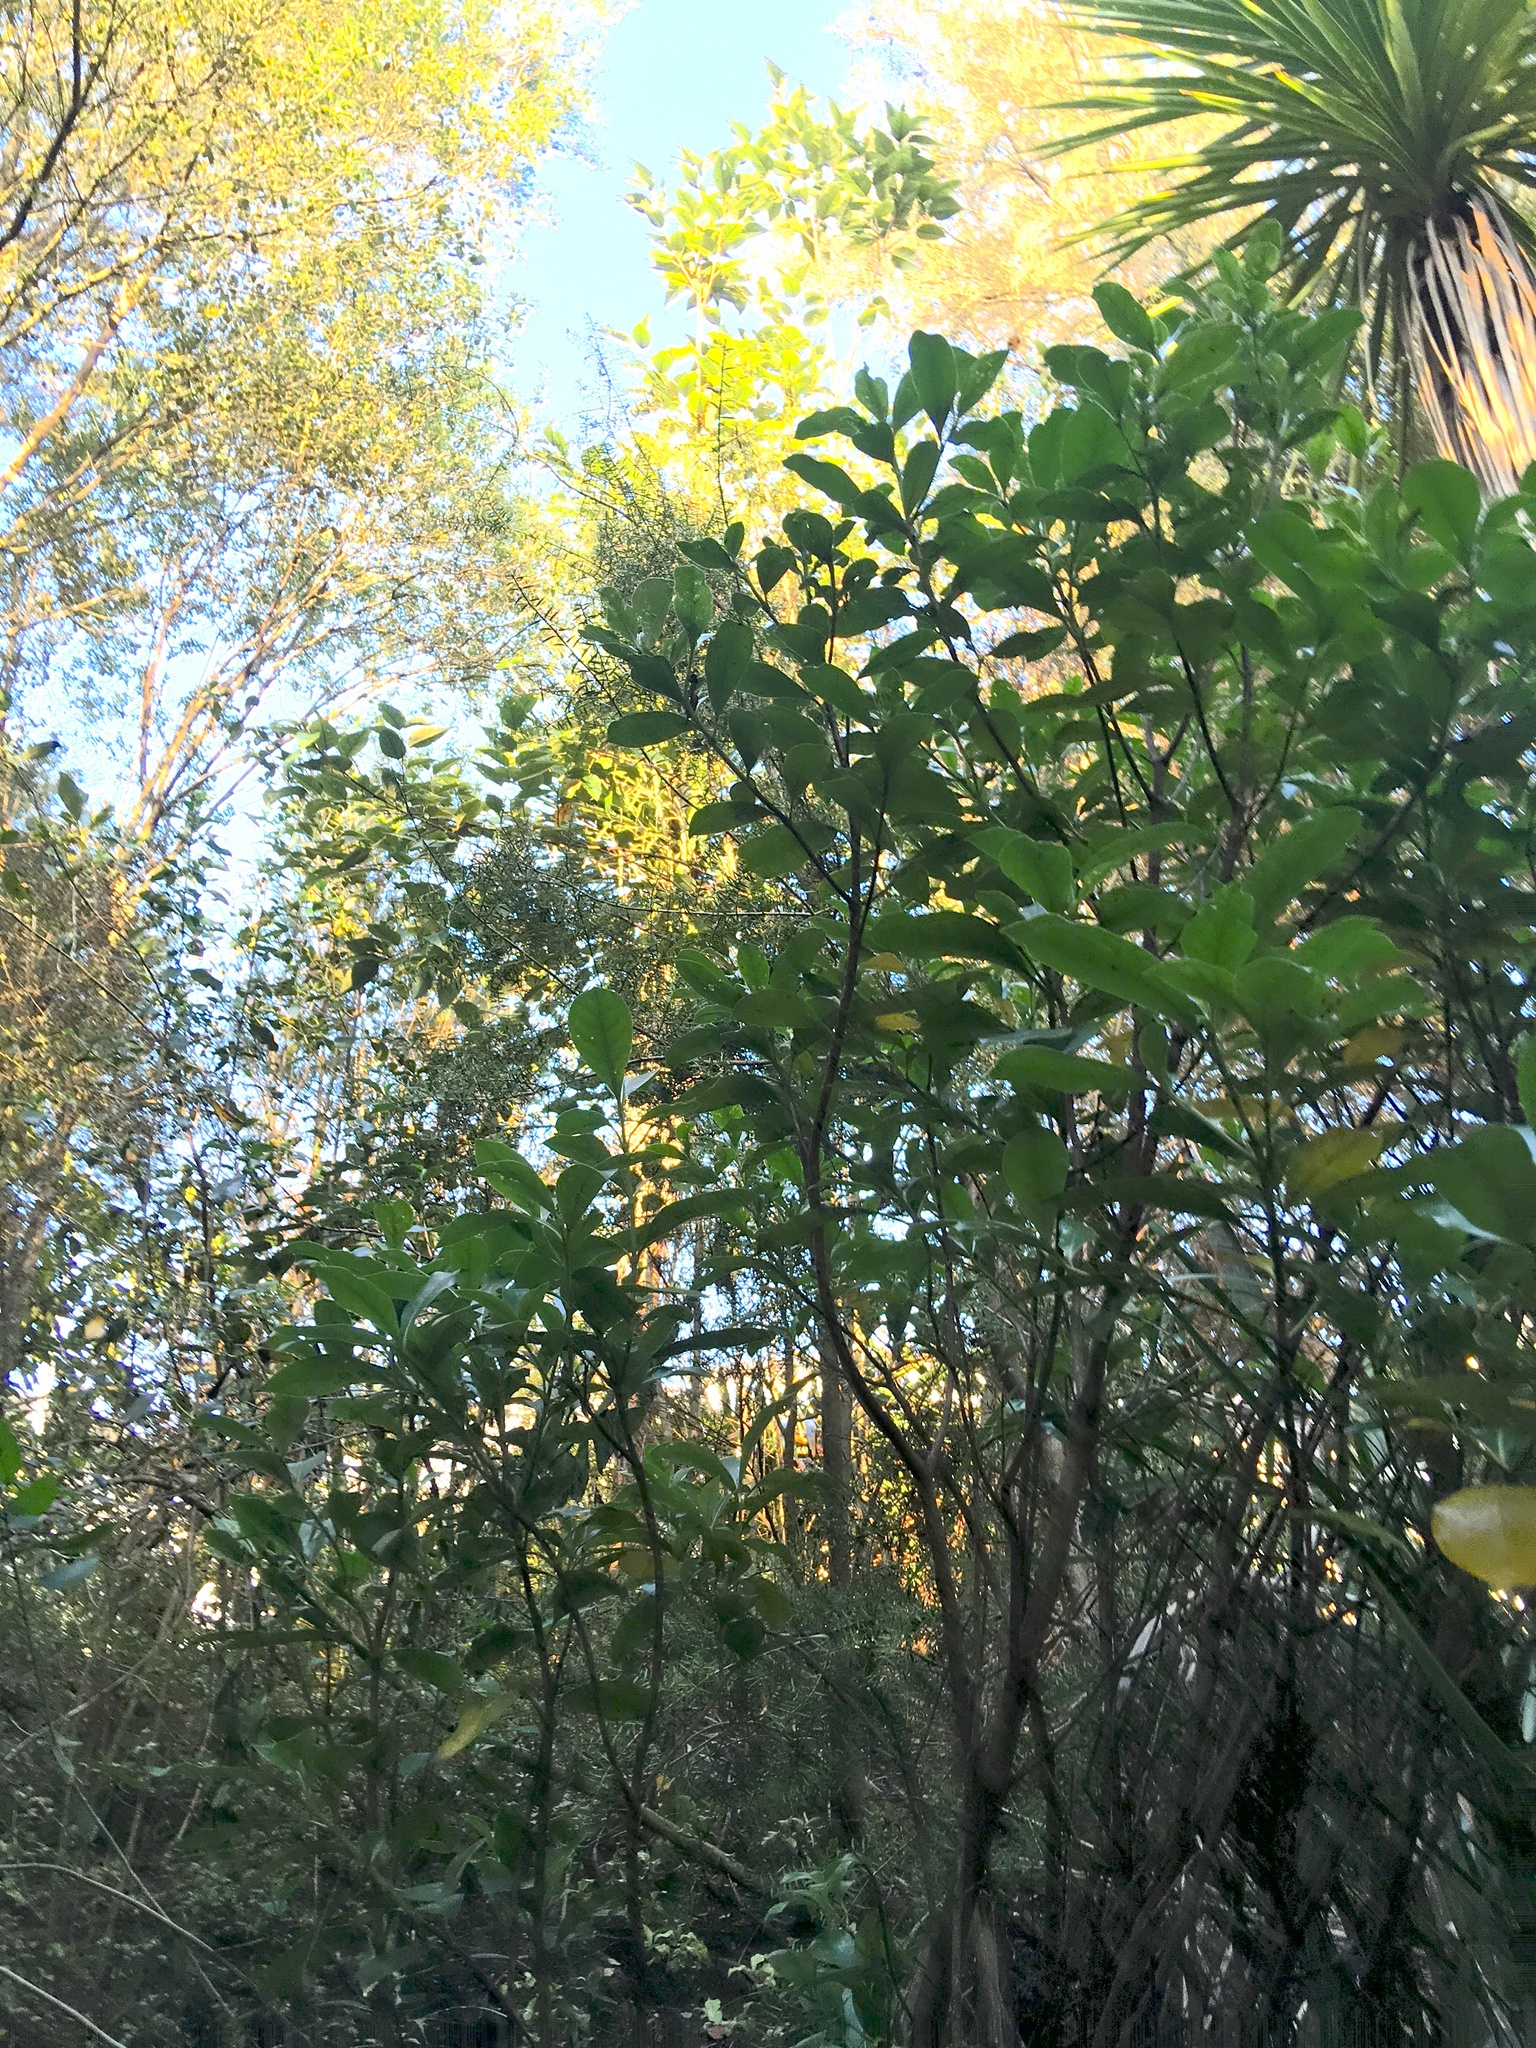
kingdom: Plantae
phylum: Tracheophyta
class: Magnoliopsida
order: Malpighiales
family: Violaceae
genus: Melicytus
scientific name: Melicytus ramiflorus
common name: Mahoe
